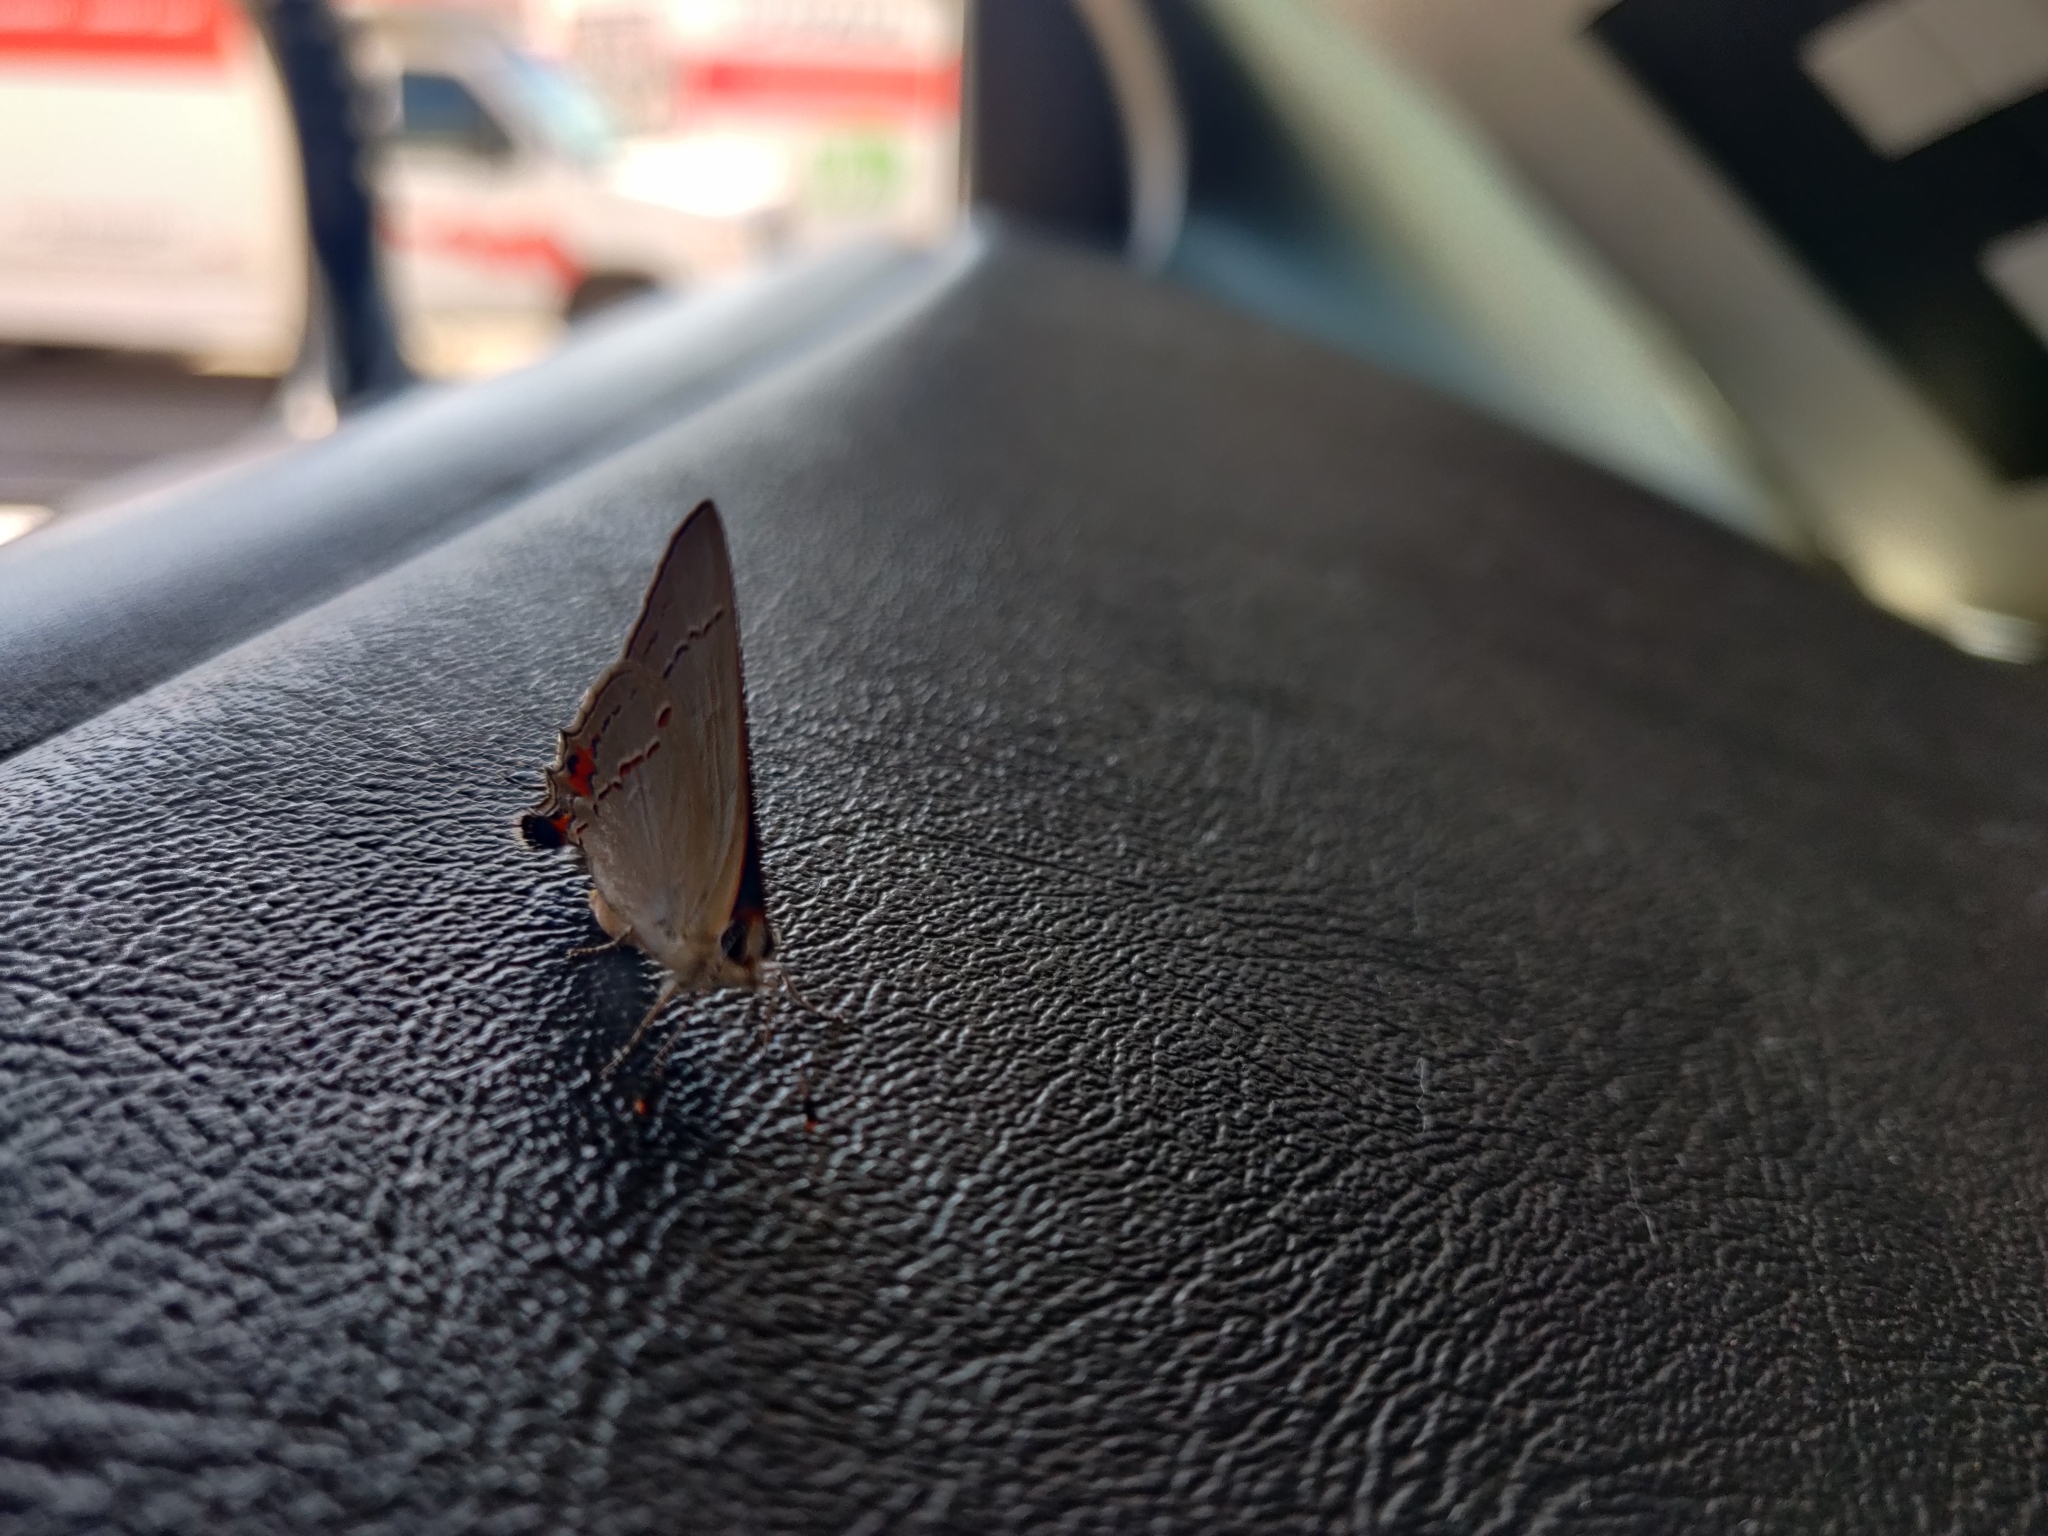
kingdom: Animalia
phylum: Arthropoda
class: Insecta
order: Lepidoptera
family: Lycaenidae
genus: Strymon
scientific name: Strymon melinus
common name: Gray hairstreak
